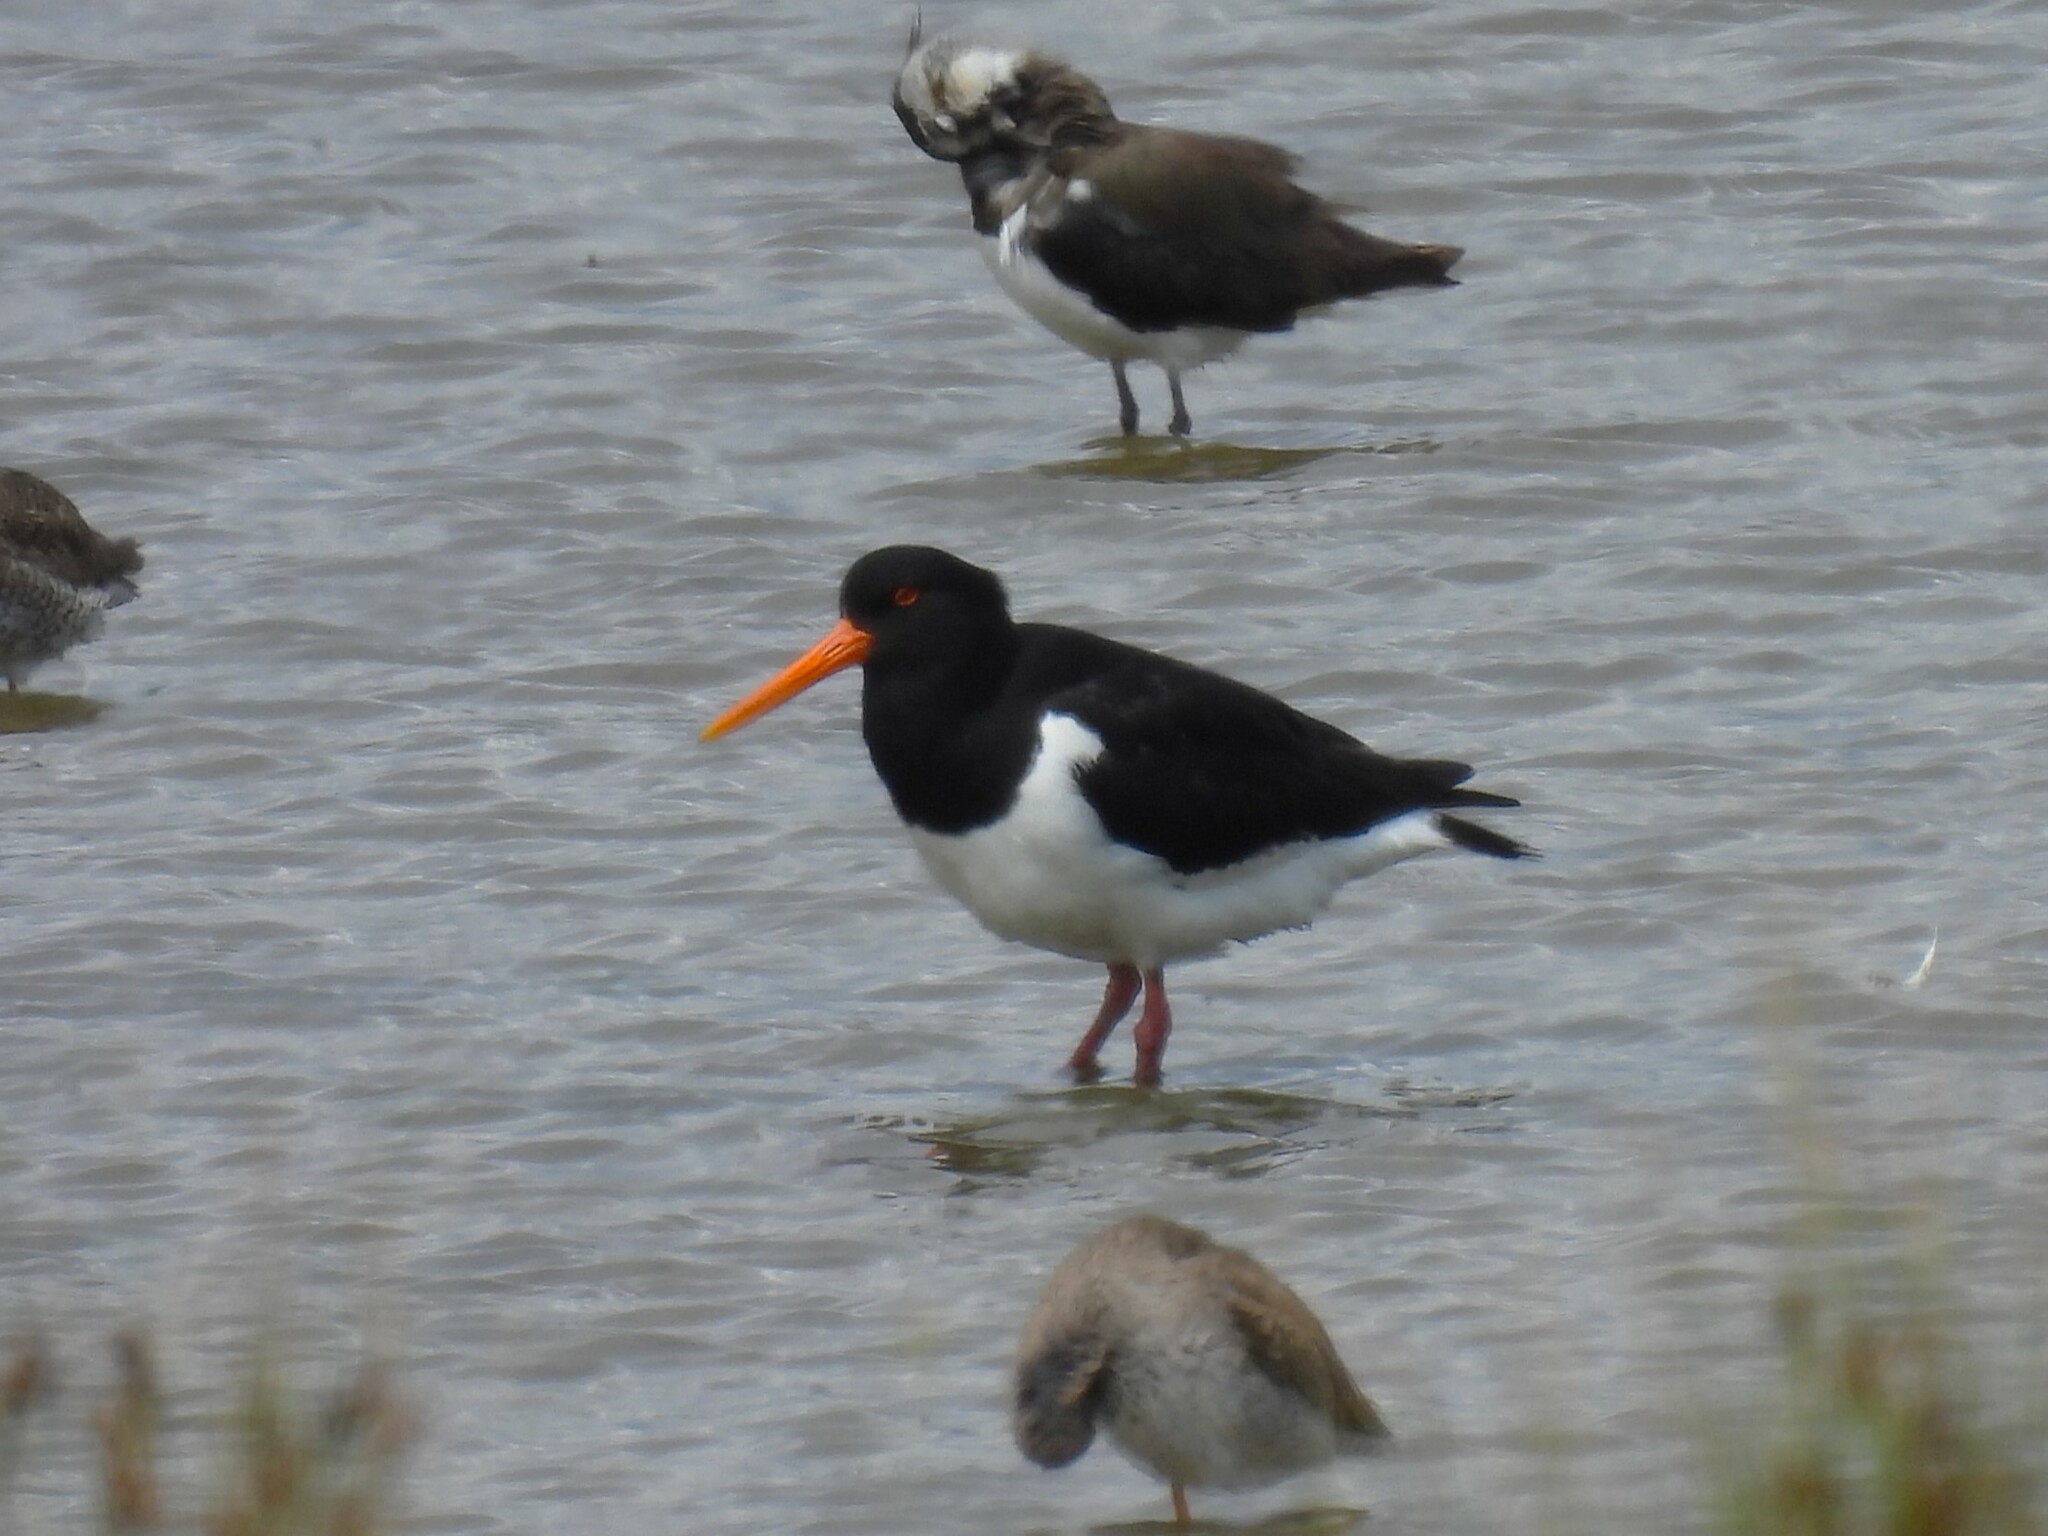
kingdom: Animalia
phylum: Chordata
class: Aves
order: Charadriiformes
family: Haematopodidae
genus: Haematopus
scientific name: Haematopus ostralegus
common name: Eurasian oystercatcher
